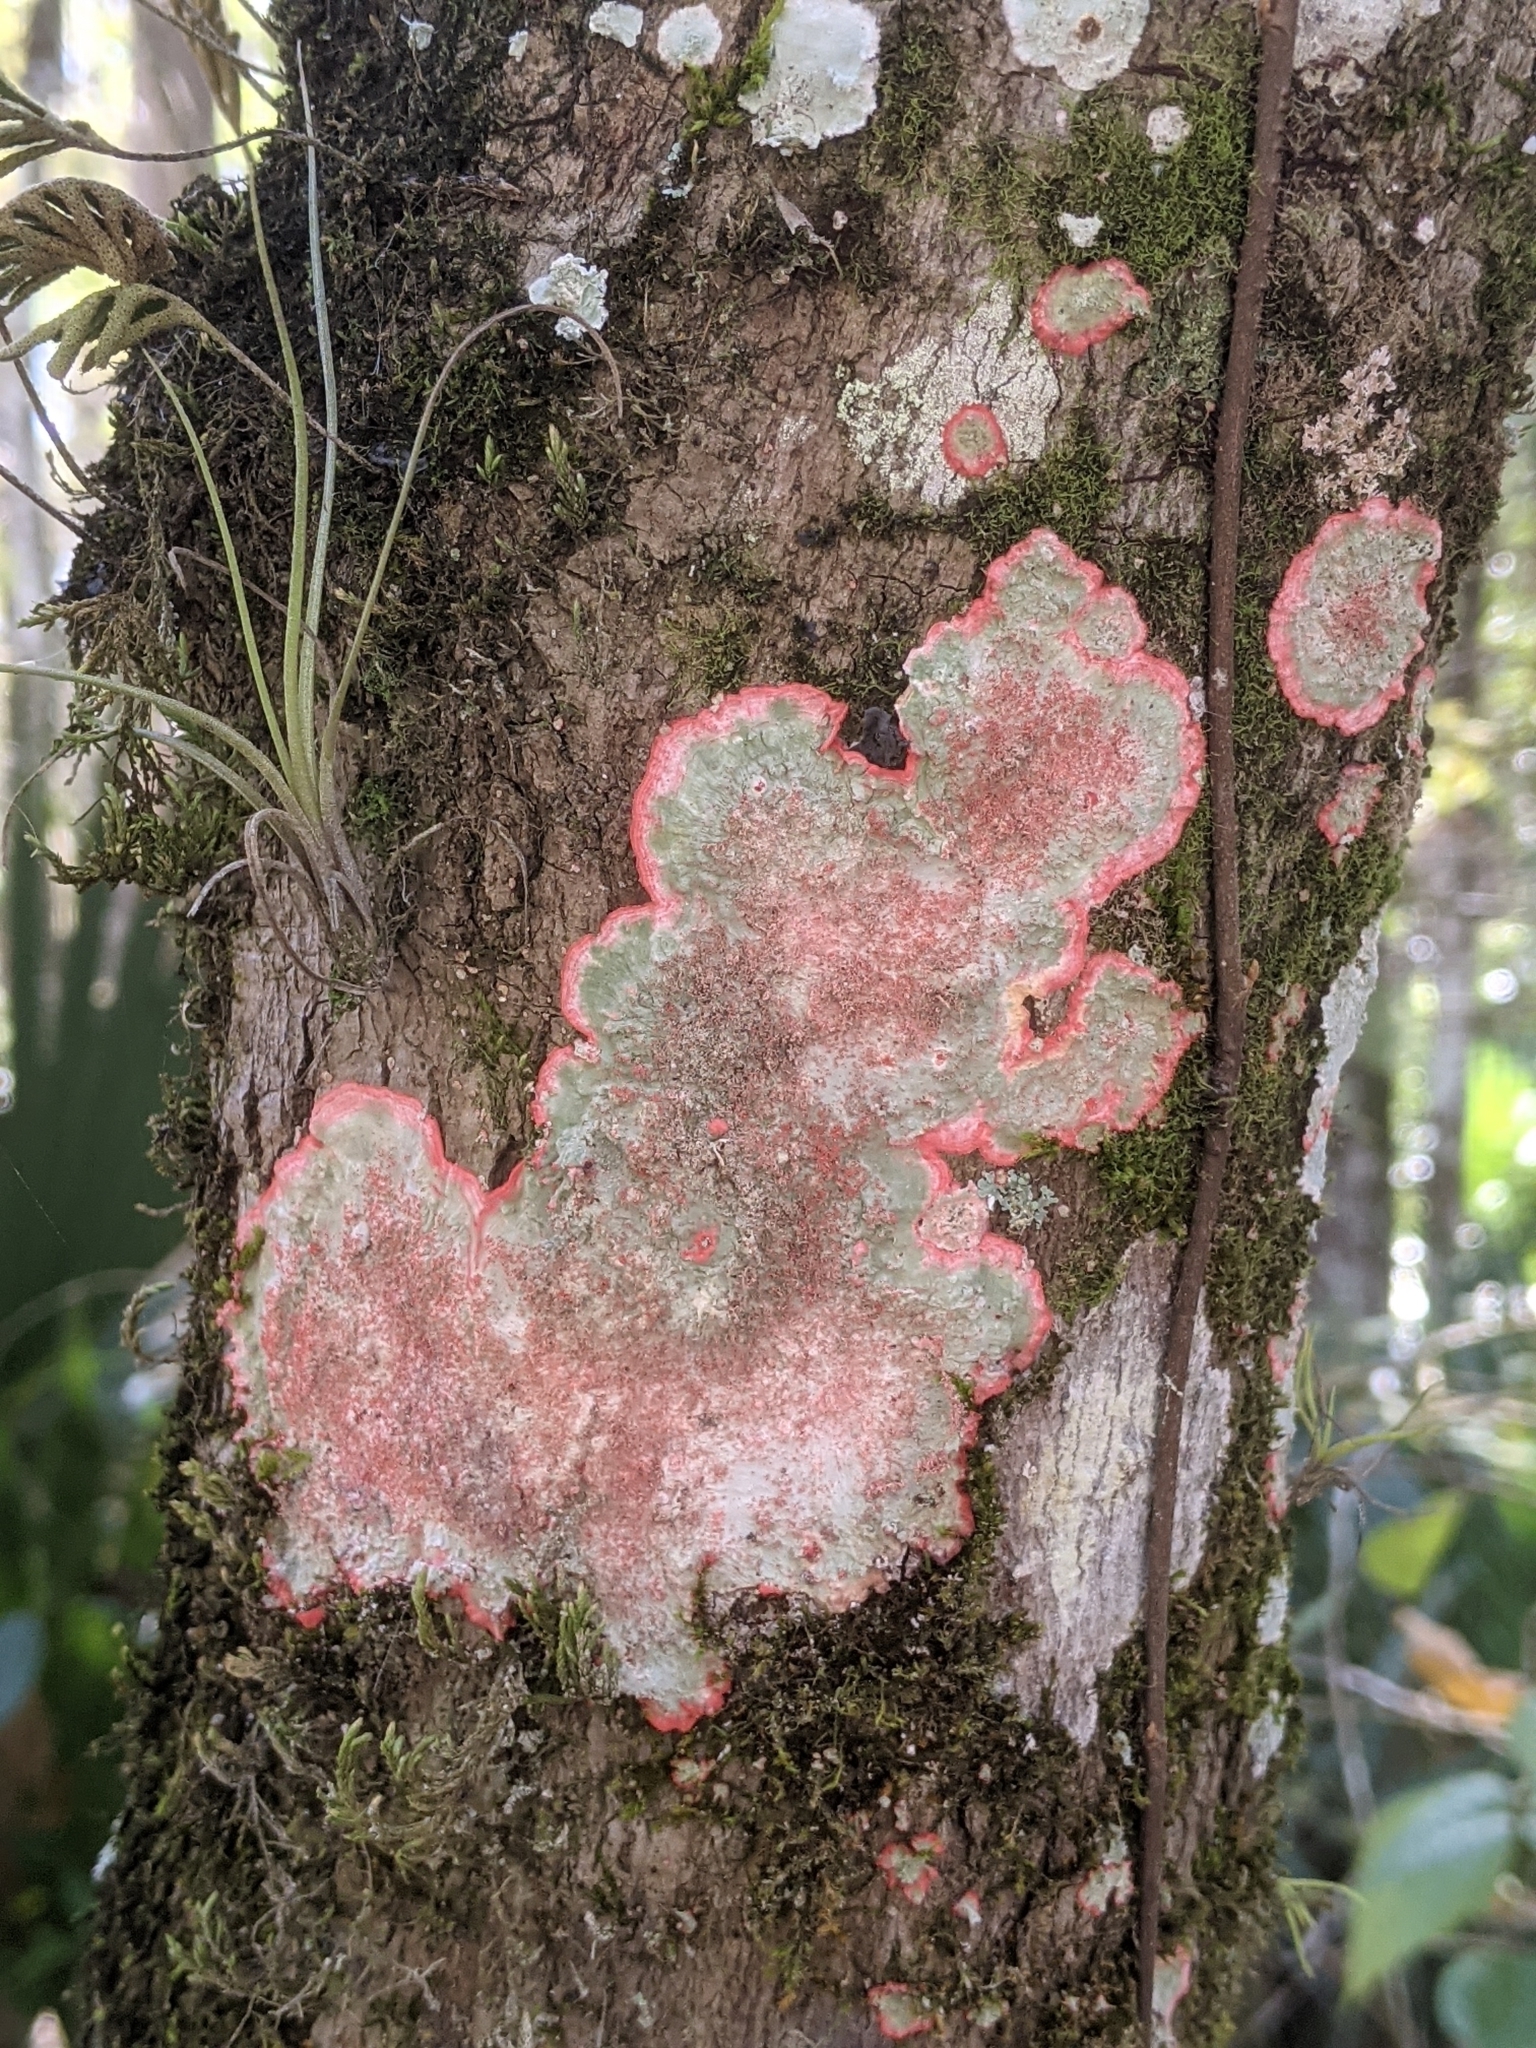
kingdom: Fungi
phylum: Ascomycota
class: Arthoniomycetes
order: Arthoniales
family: Arthoniaceae
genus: Herpothallon
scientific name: Herpothallon rubrocinctum
